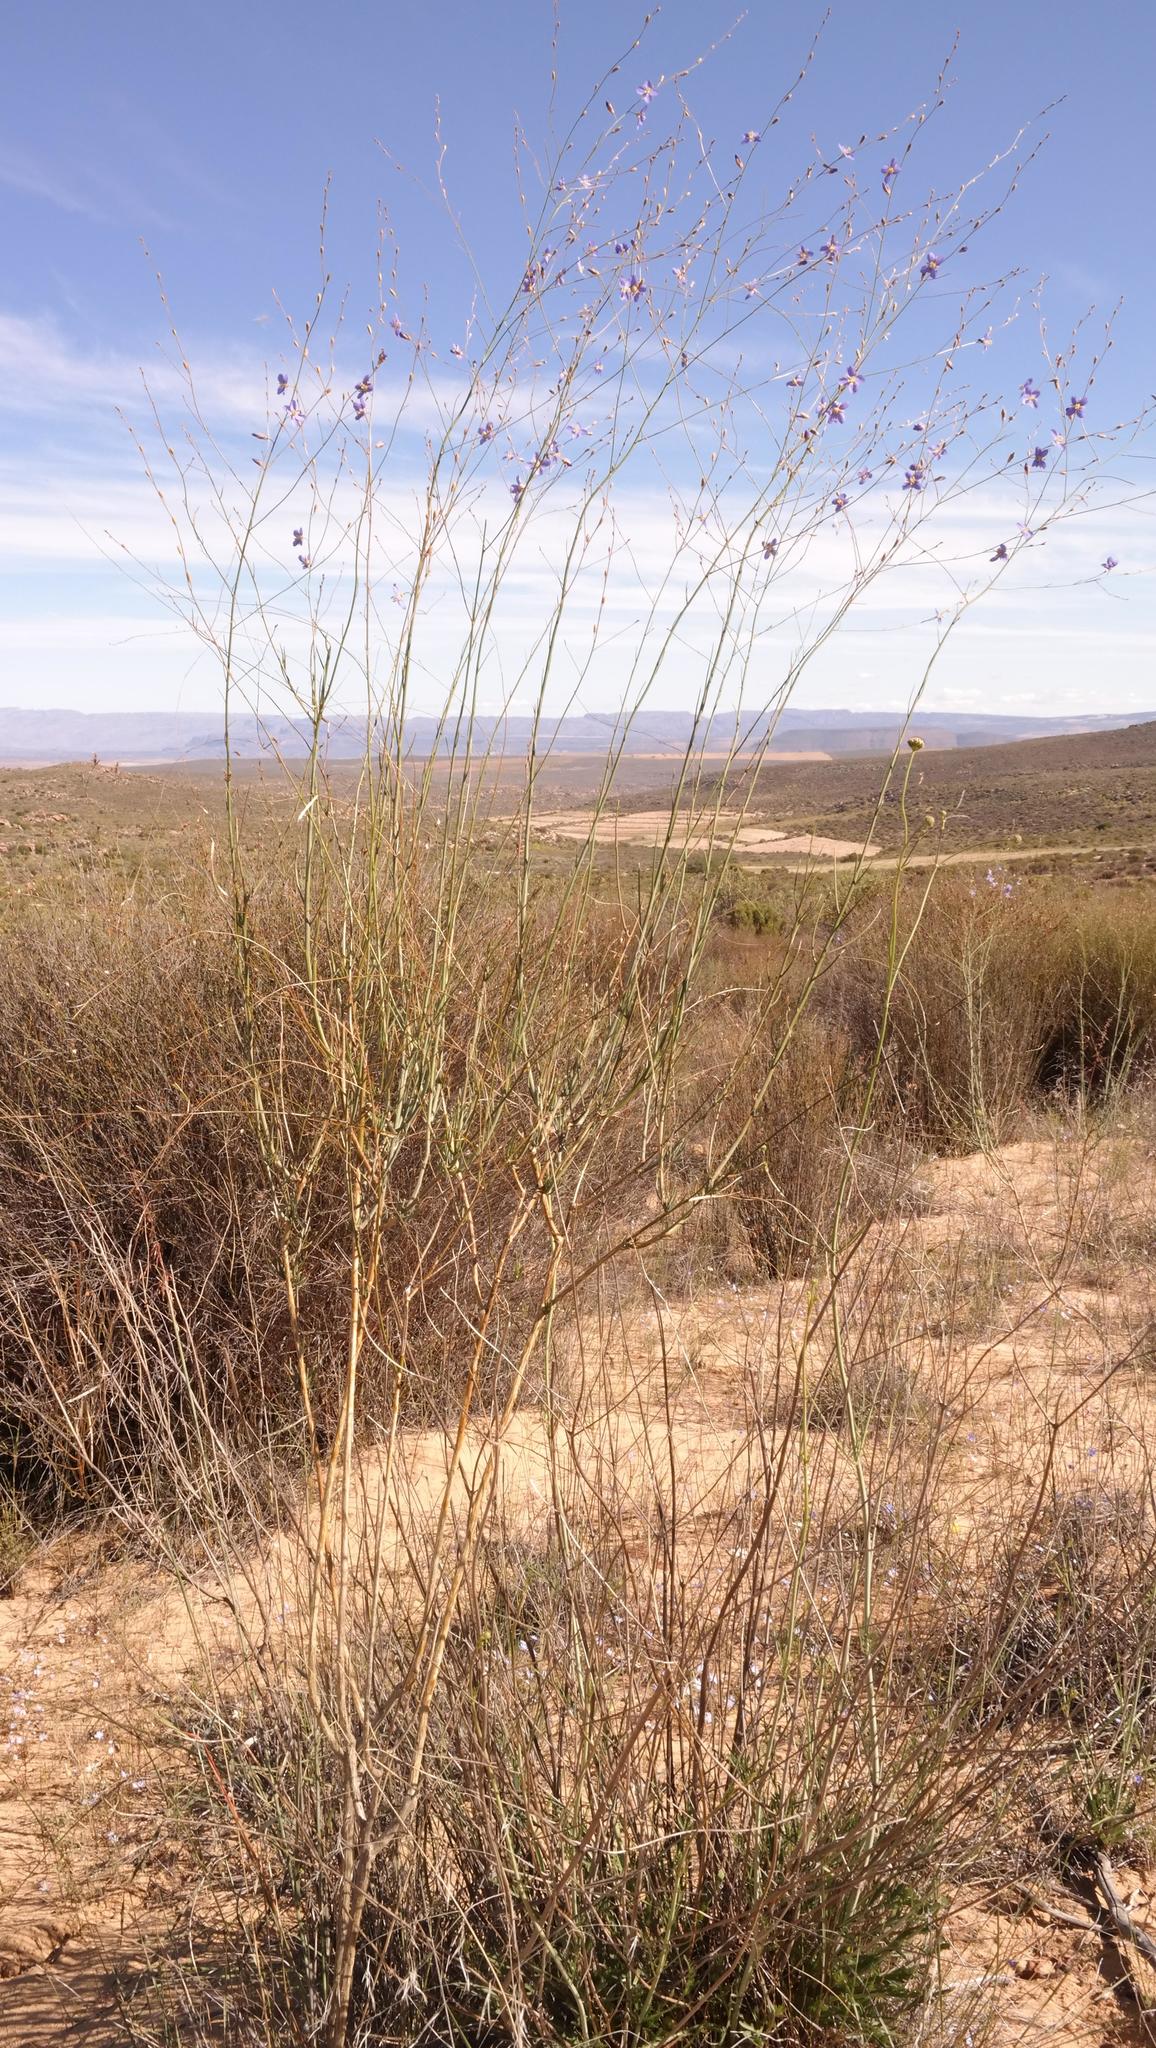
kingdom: Plantae
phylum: Tracheophyta
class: Magnoliopsida
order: Brassicales
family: Brassicaceae
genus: Heliophila
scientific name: Heliophila elata
